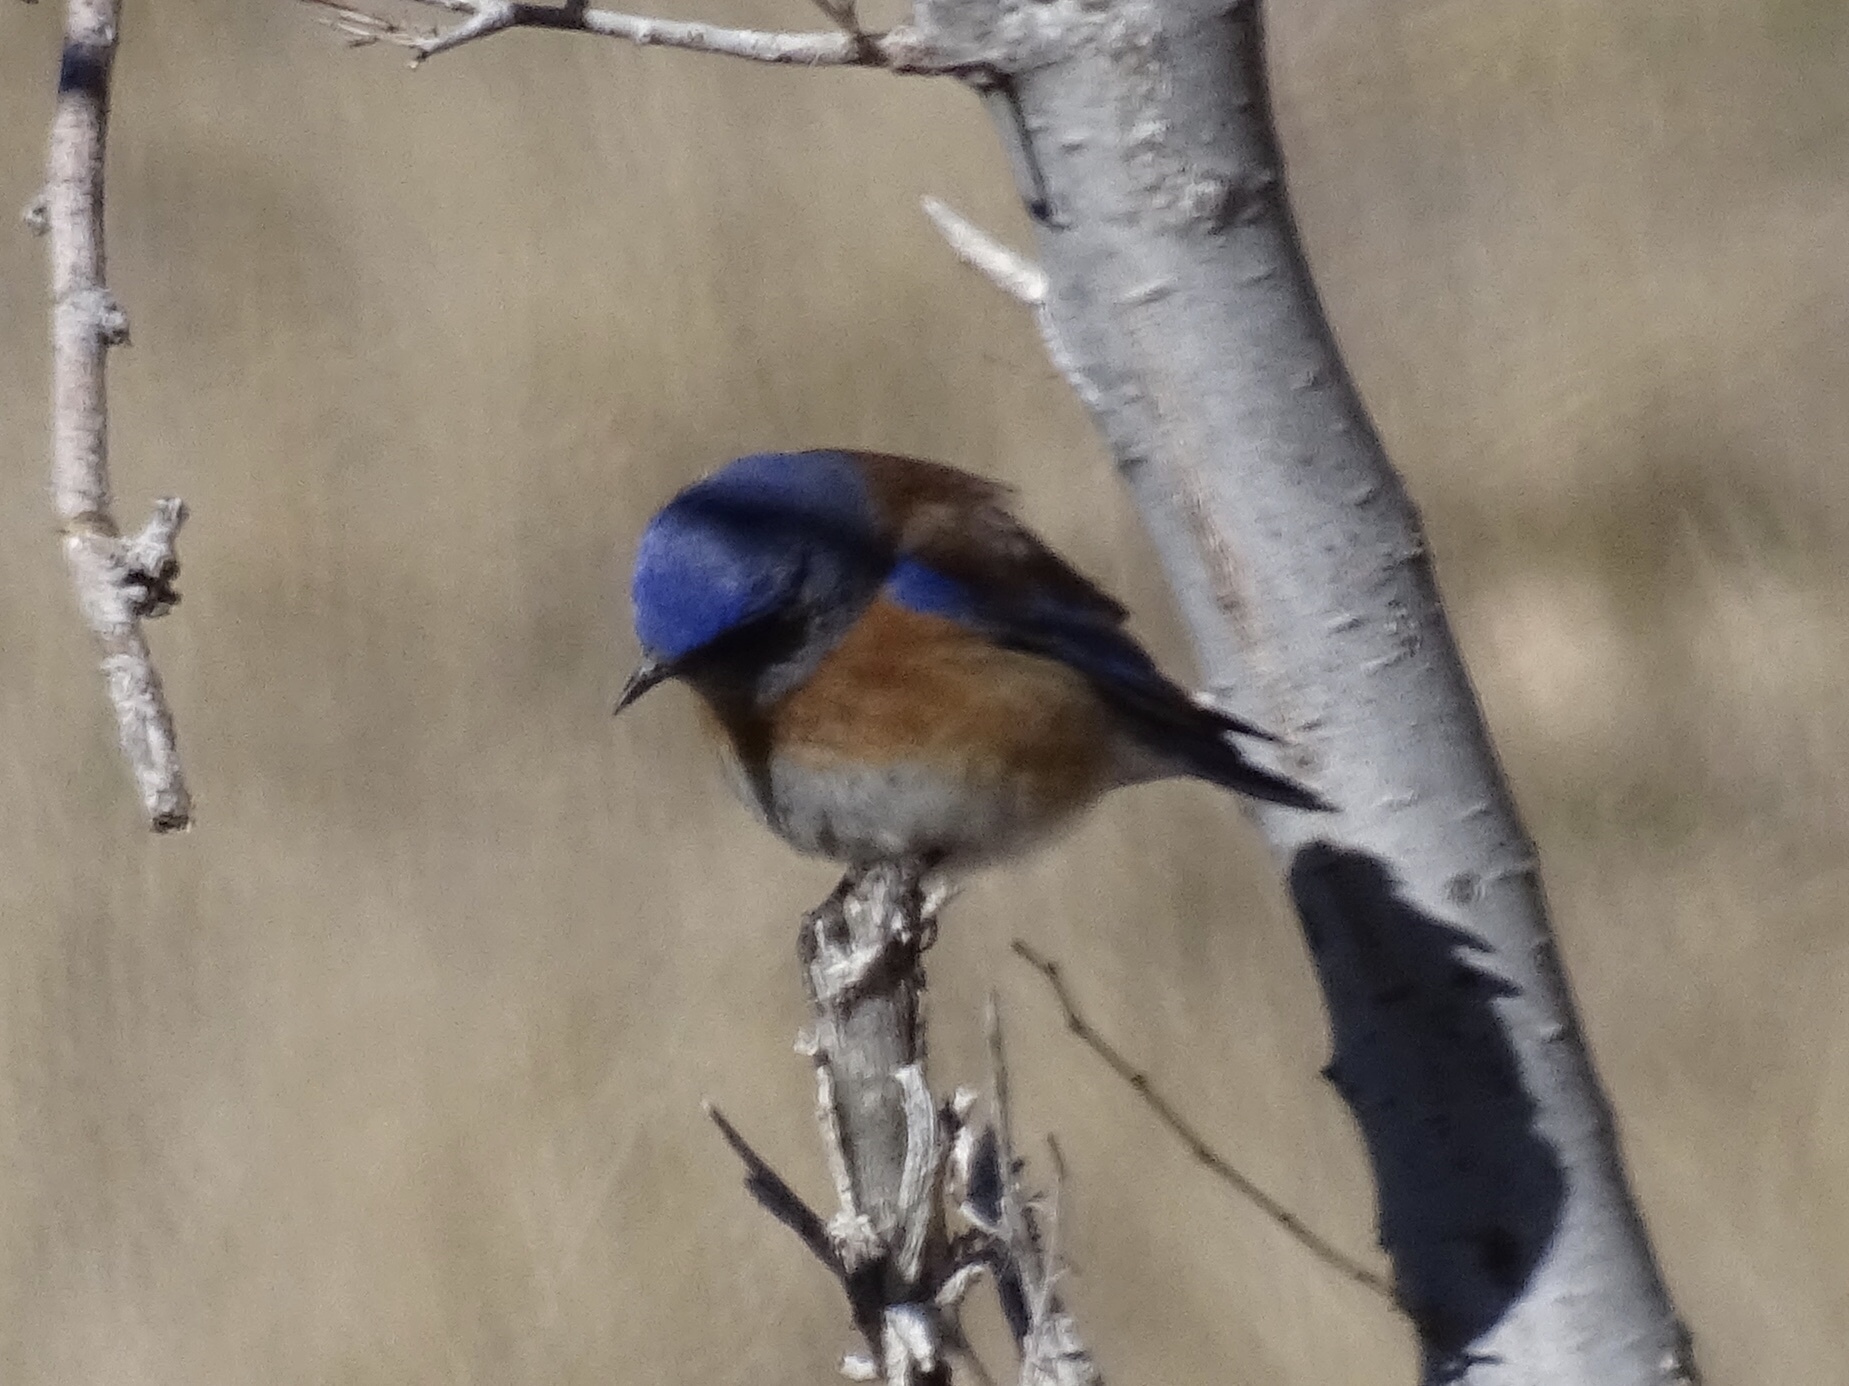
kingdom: Animalia
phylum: Chordata
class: Aves
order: Passeriformes
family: Turdidae
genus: Sialia
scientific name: Sialia mexicana
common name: Western bluebird
